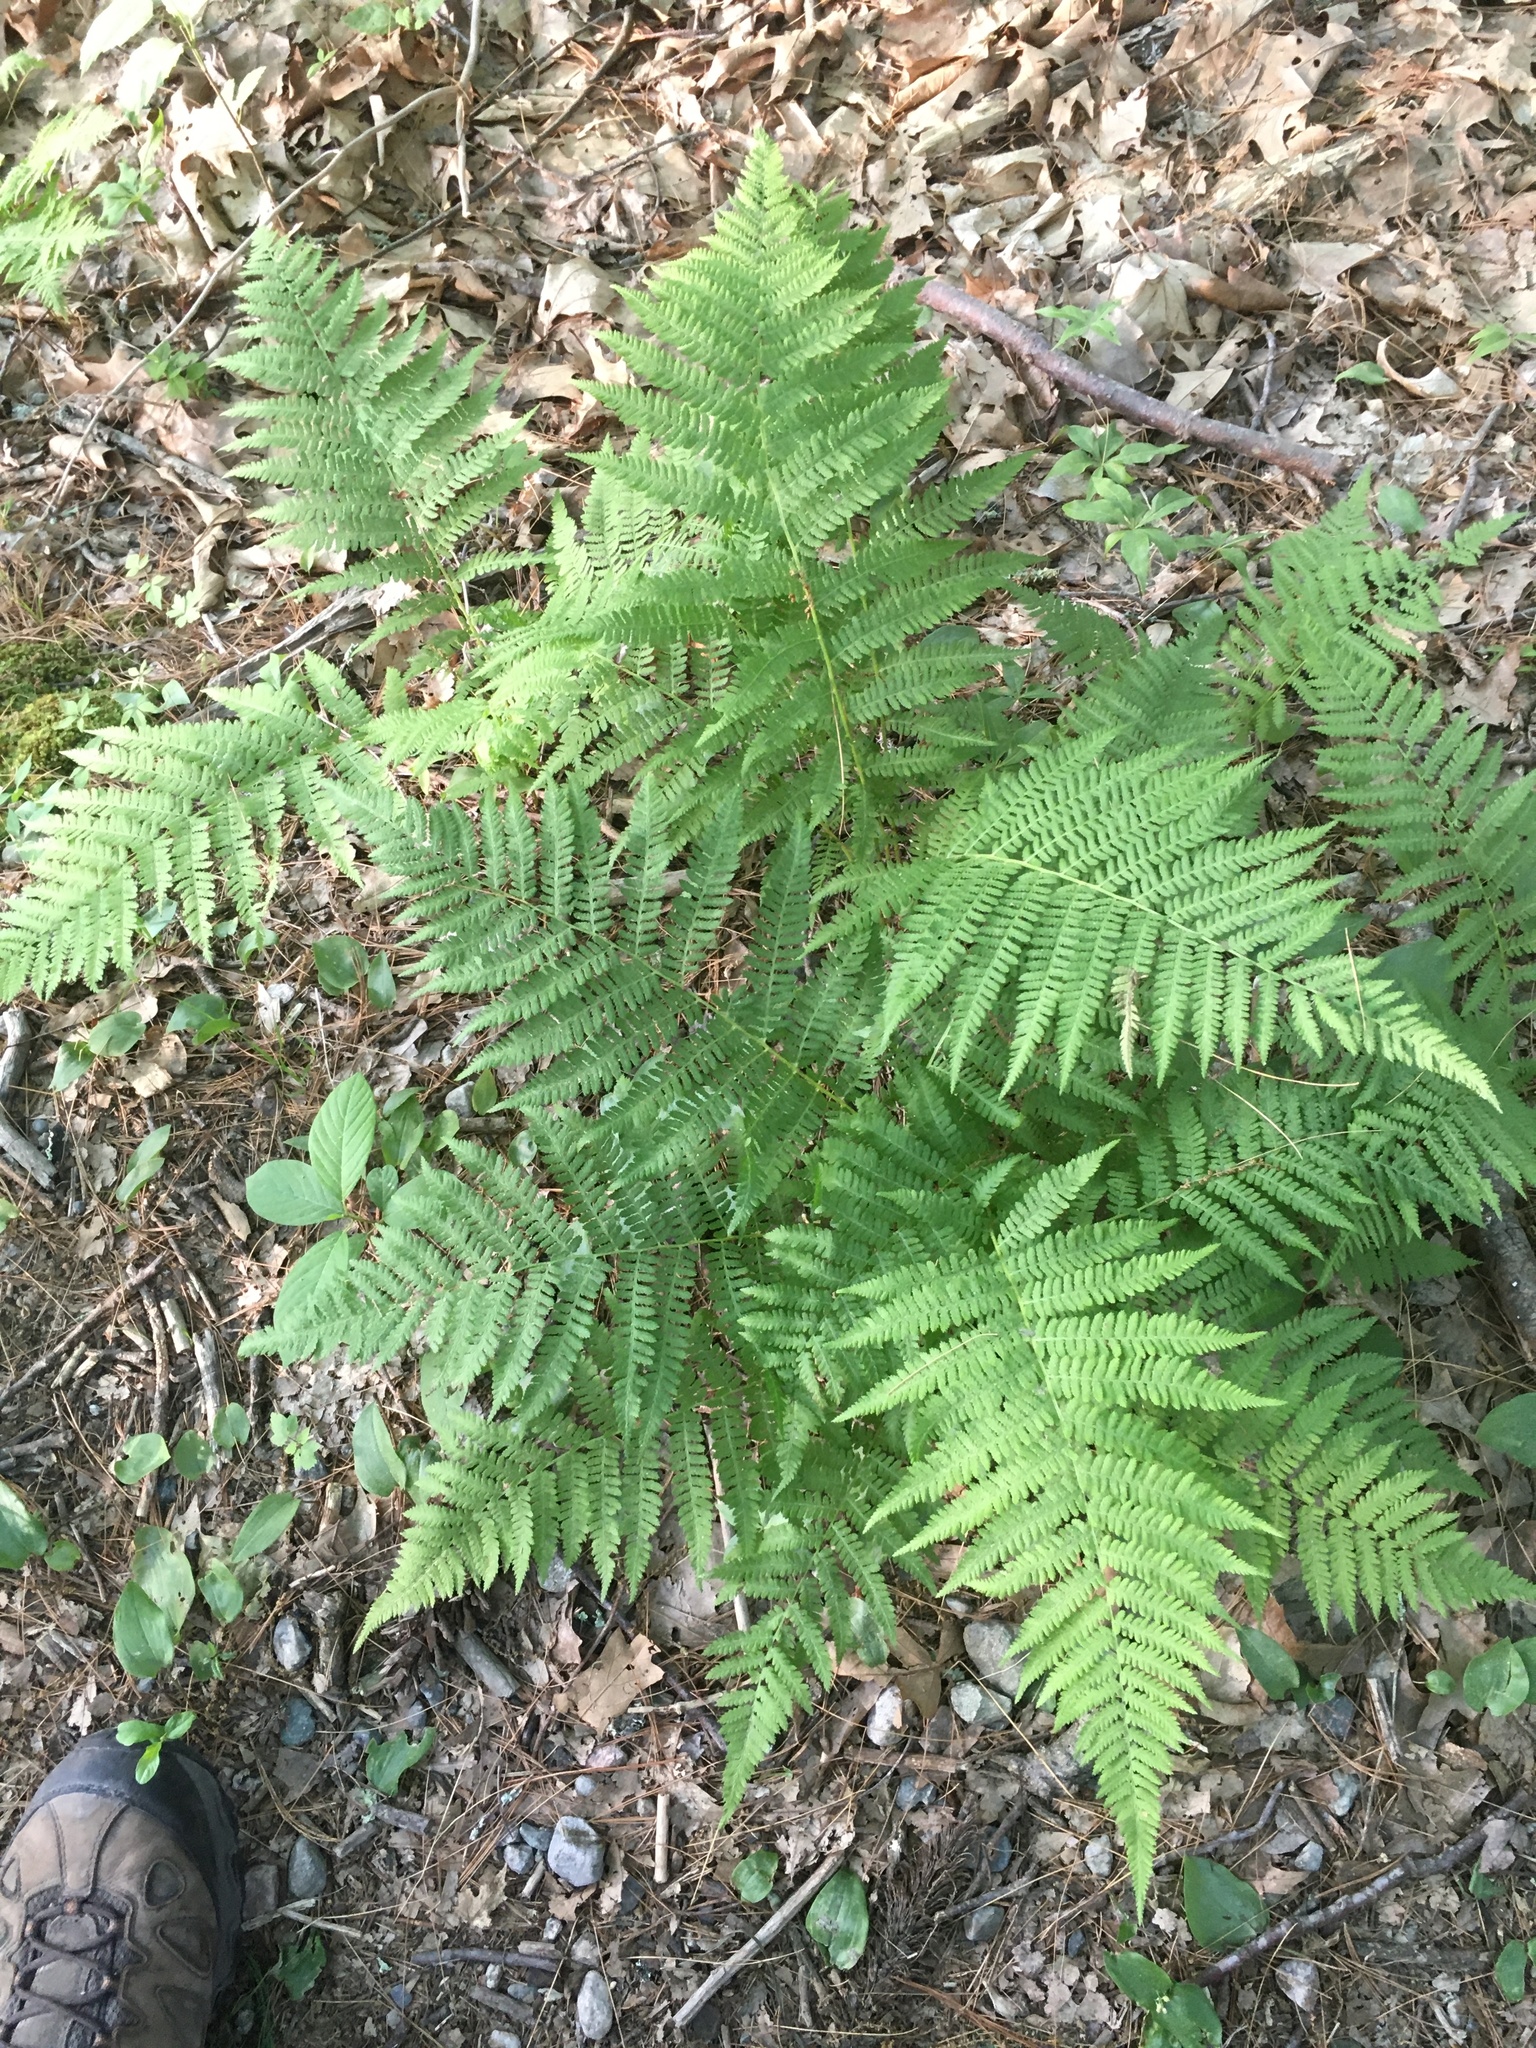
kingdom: Plantae
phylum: Tracheophyta
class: Polypodiopsida
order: Polypodiales
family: Athyriaceae
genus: Athyrium
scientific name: Athyrium angustum
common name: Northern lady fern
